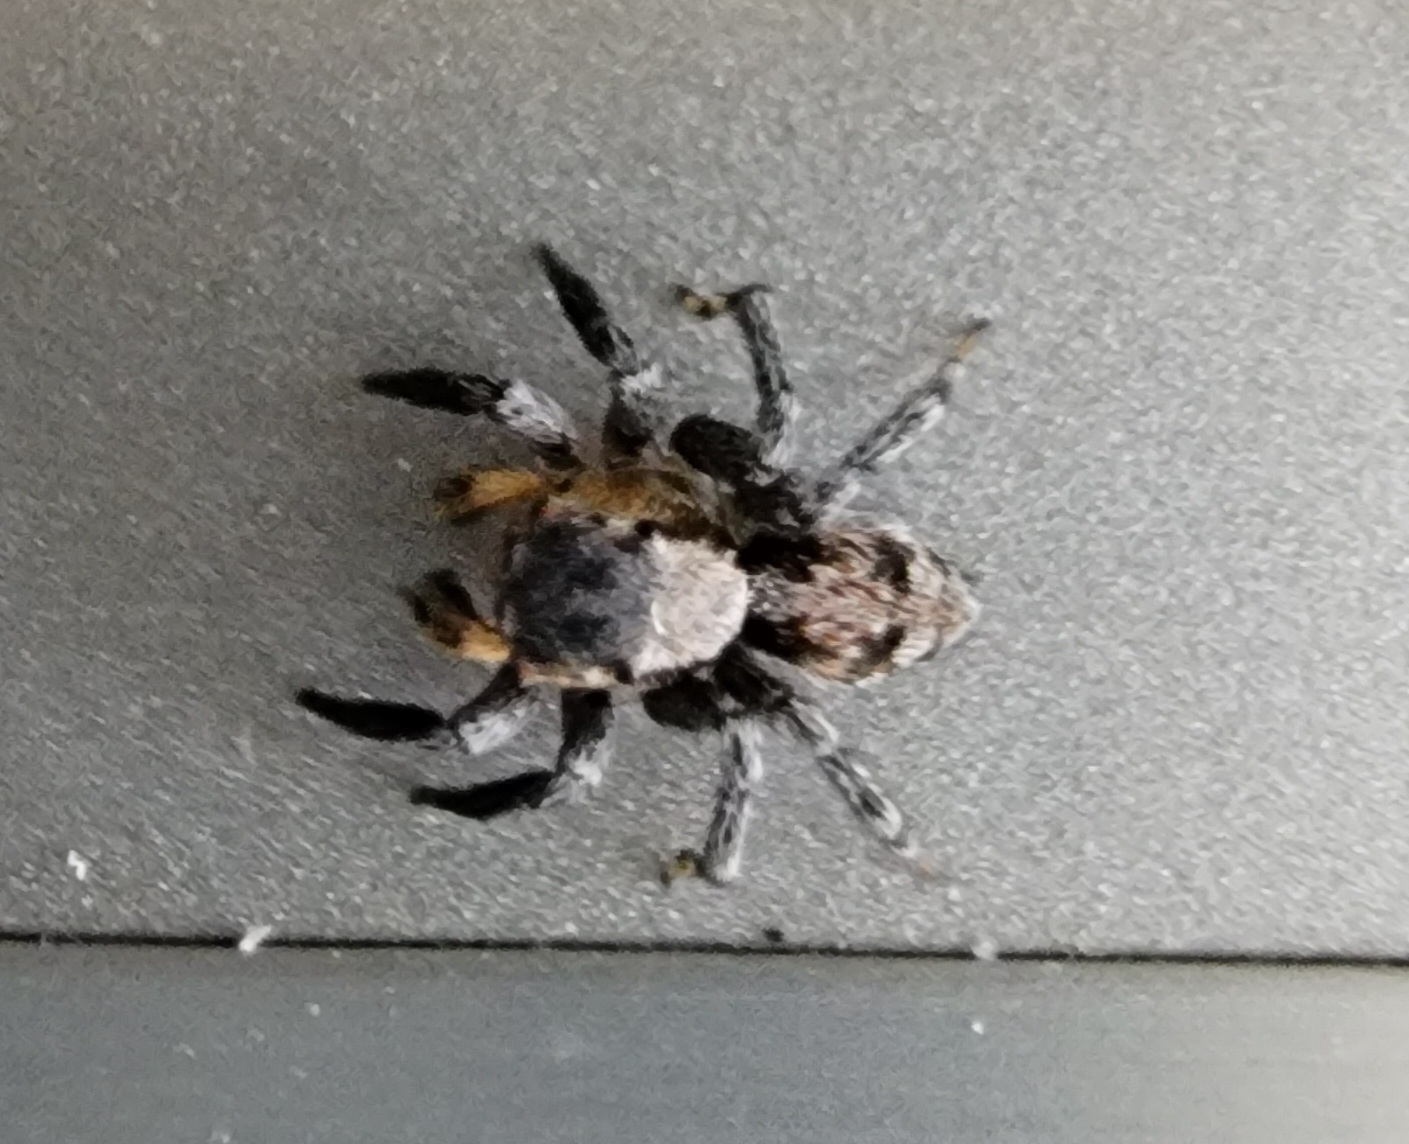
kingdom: Animalia
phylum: Arthropoda
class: Arachnida
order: Araneae
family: Salticidae
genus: Naphrys
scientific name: Naphrys pulex
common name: Flea jumping spider
